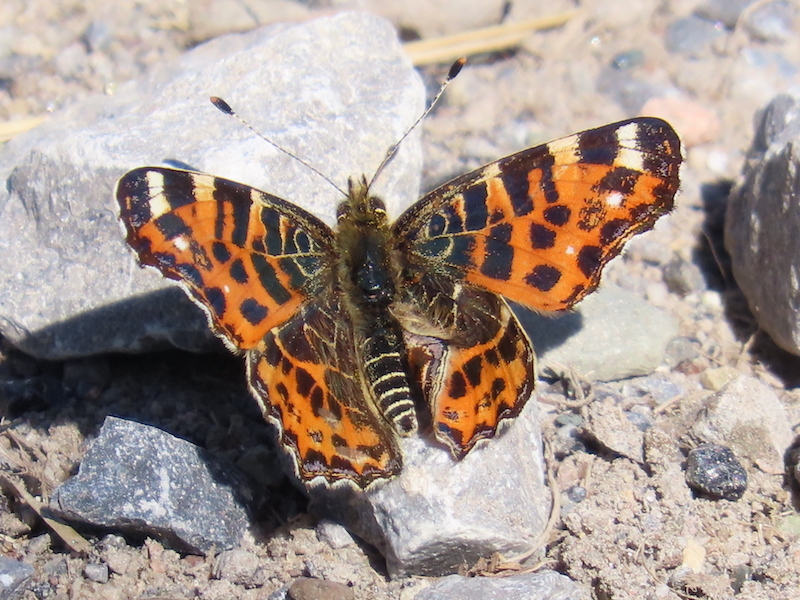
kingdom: Animalia
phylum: Arthropoda
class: Insecta
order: Lepidoptera
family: Nymphalidae
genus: Araschnia
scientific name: Araschnia levana
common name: Map butterfly
